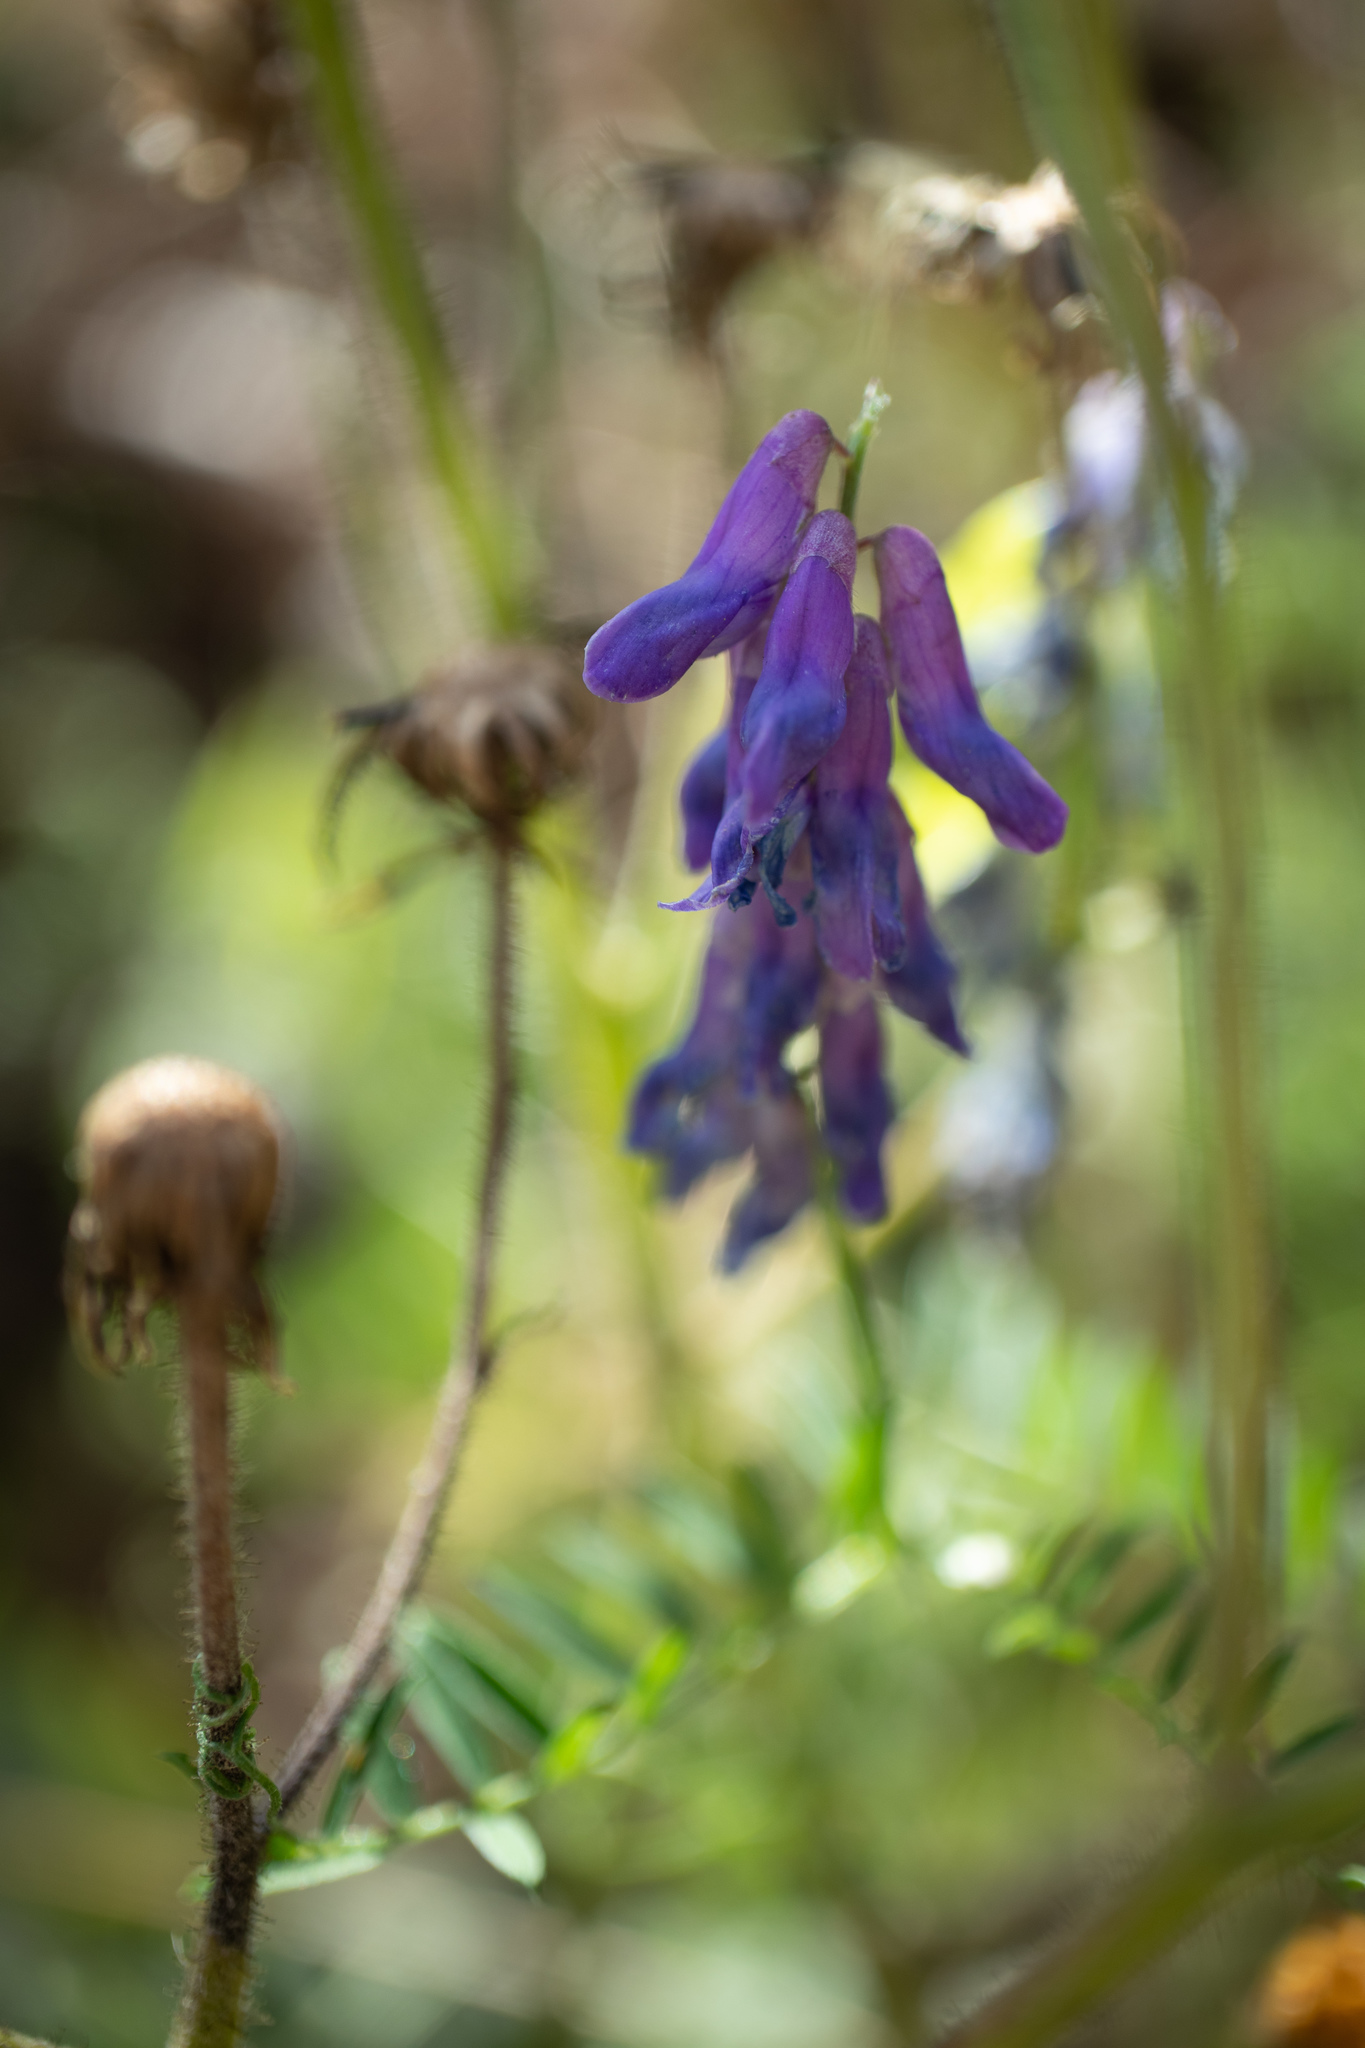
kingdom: Plantae
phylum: Tracheophyta
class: Magnoliopsida
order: Fabales
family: Fabaceae
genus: Vicia
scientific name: Vicia cracca
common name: Bird vetch
